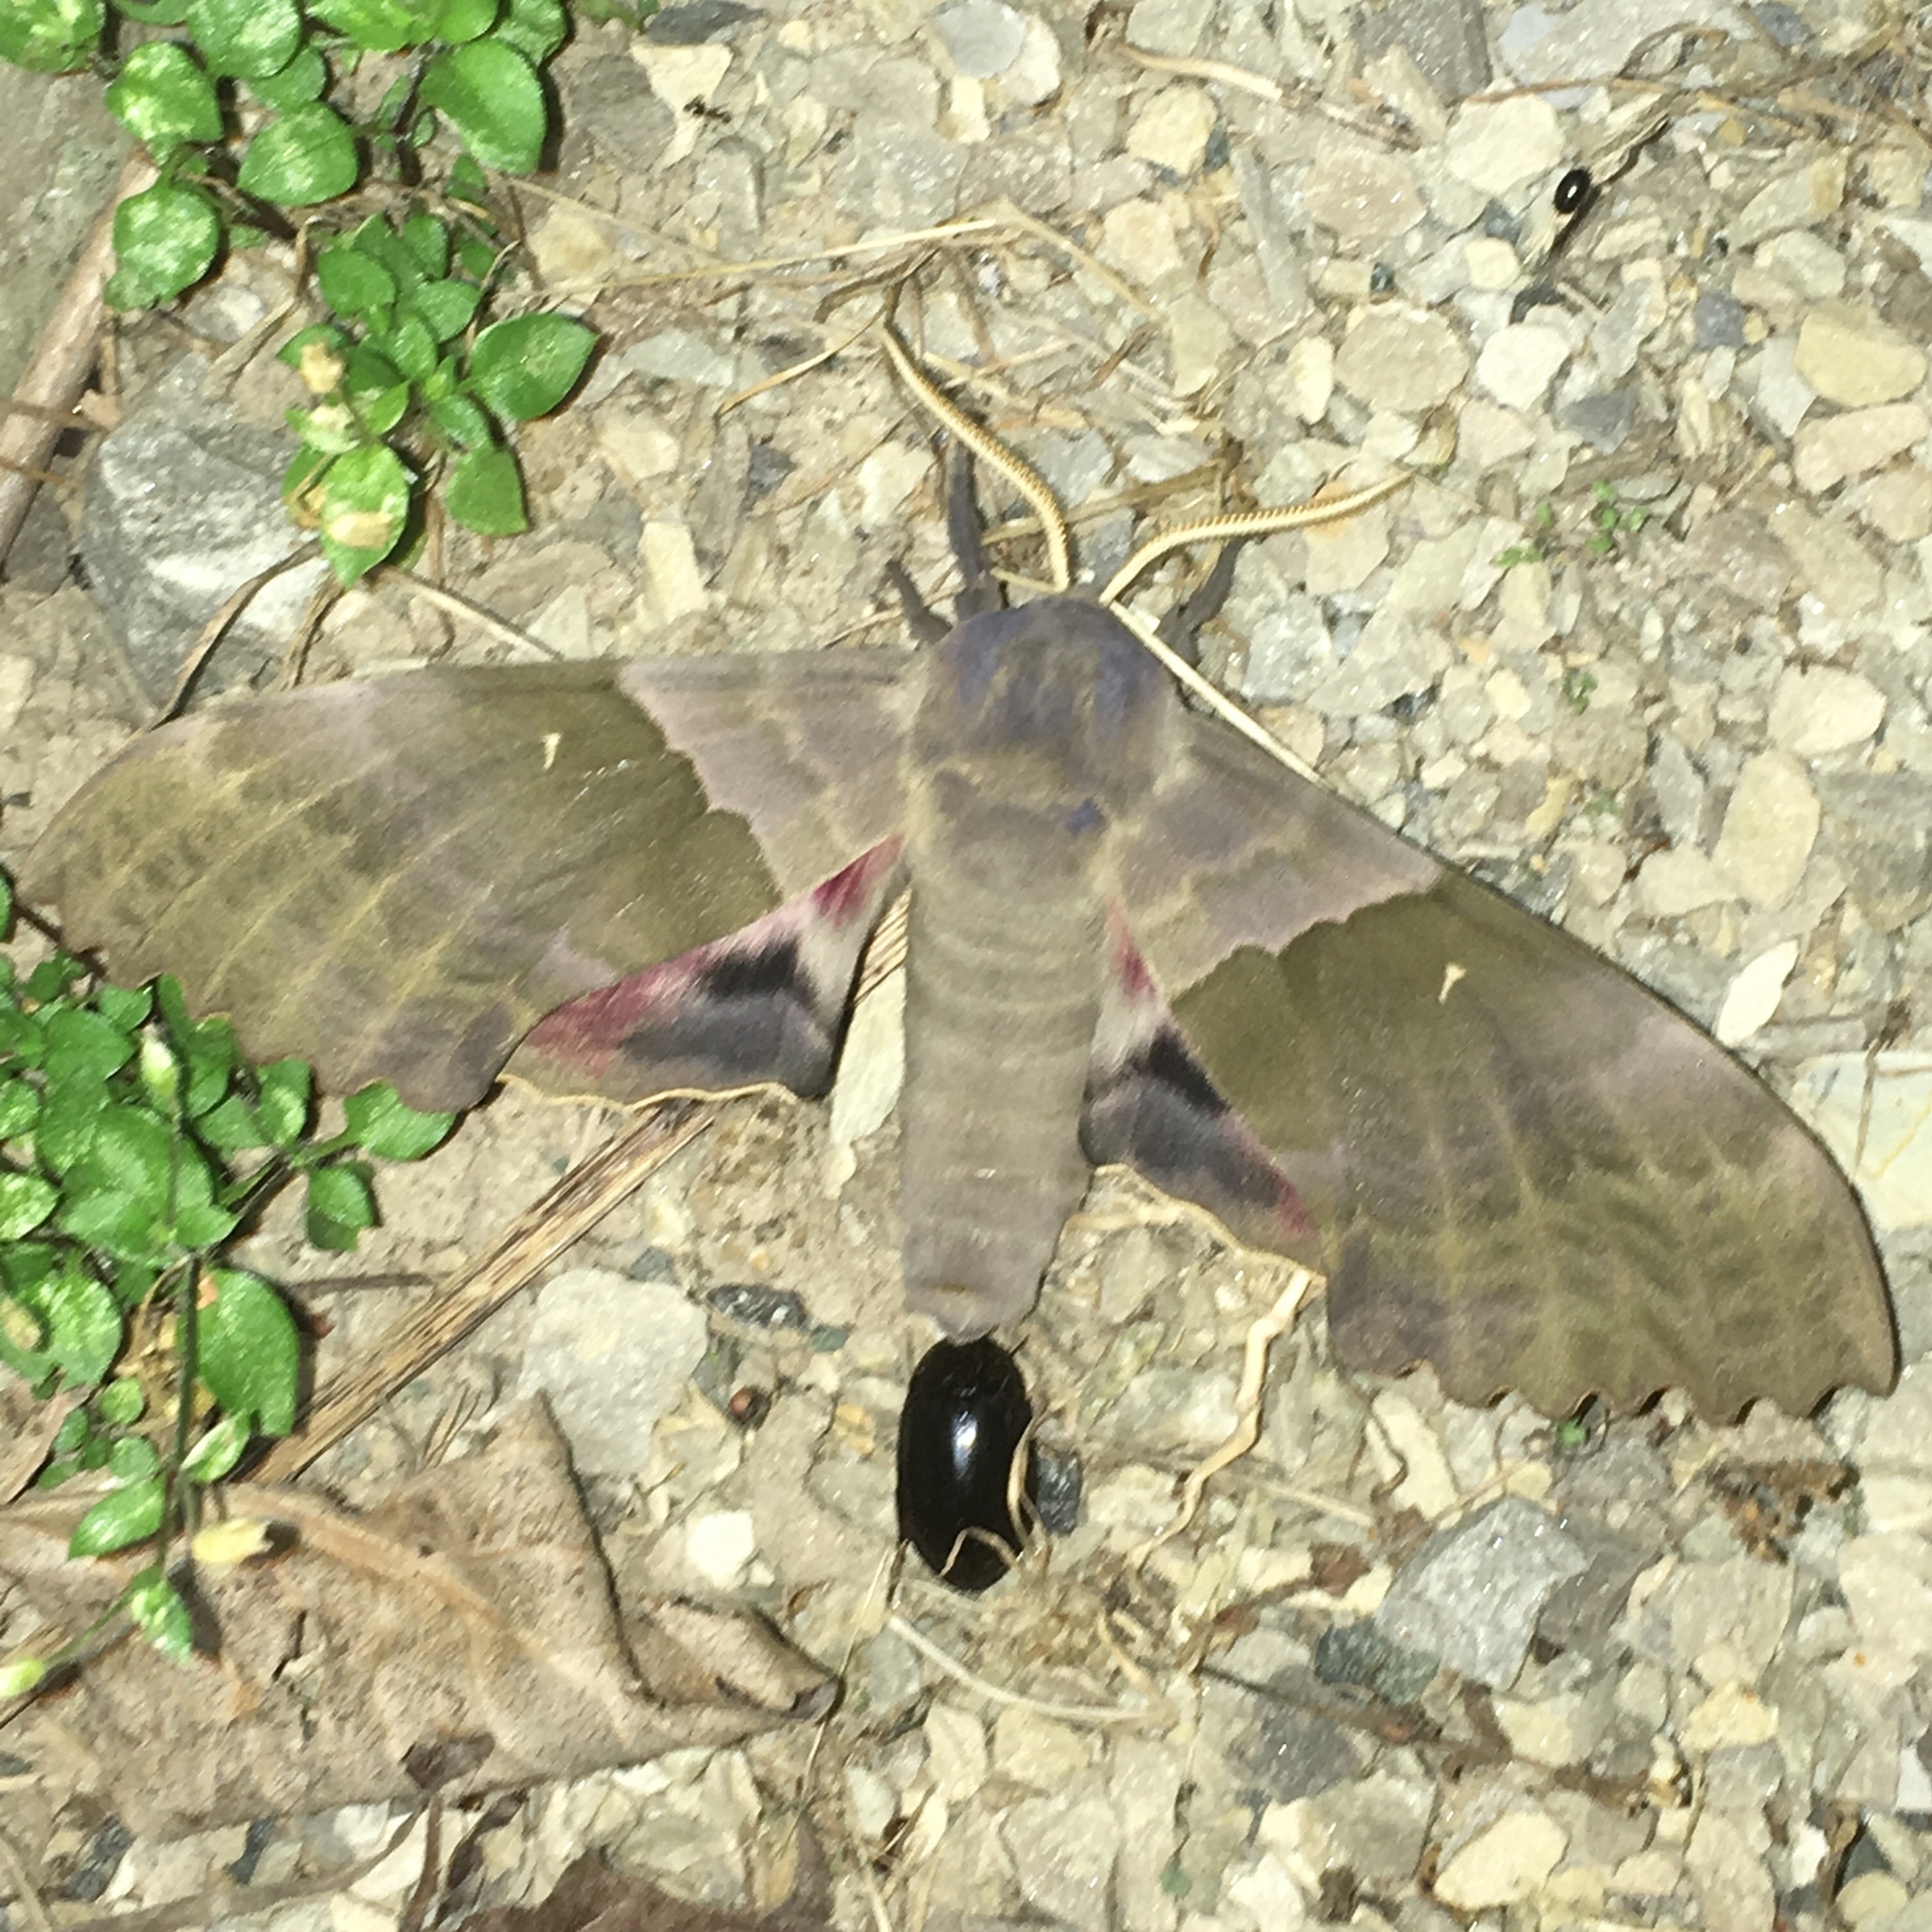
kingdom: Animalia
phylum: Arthropoda
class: Insecta
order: Lepidoptera
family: Sphingidae
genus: Pachysphinx
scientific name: Pachysphinx modesta
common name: Big poplar sphinx
